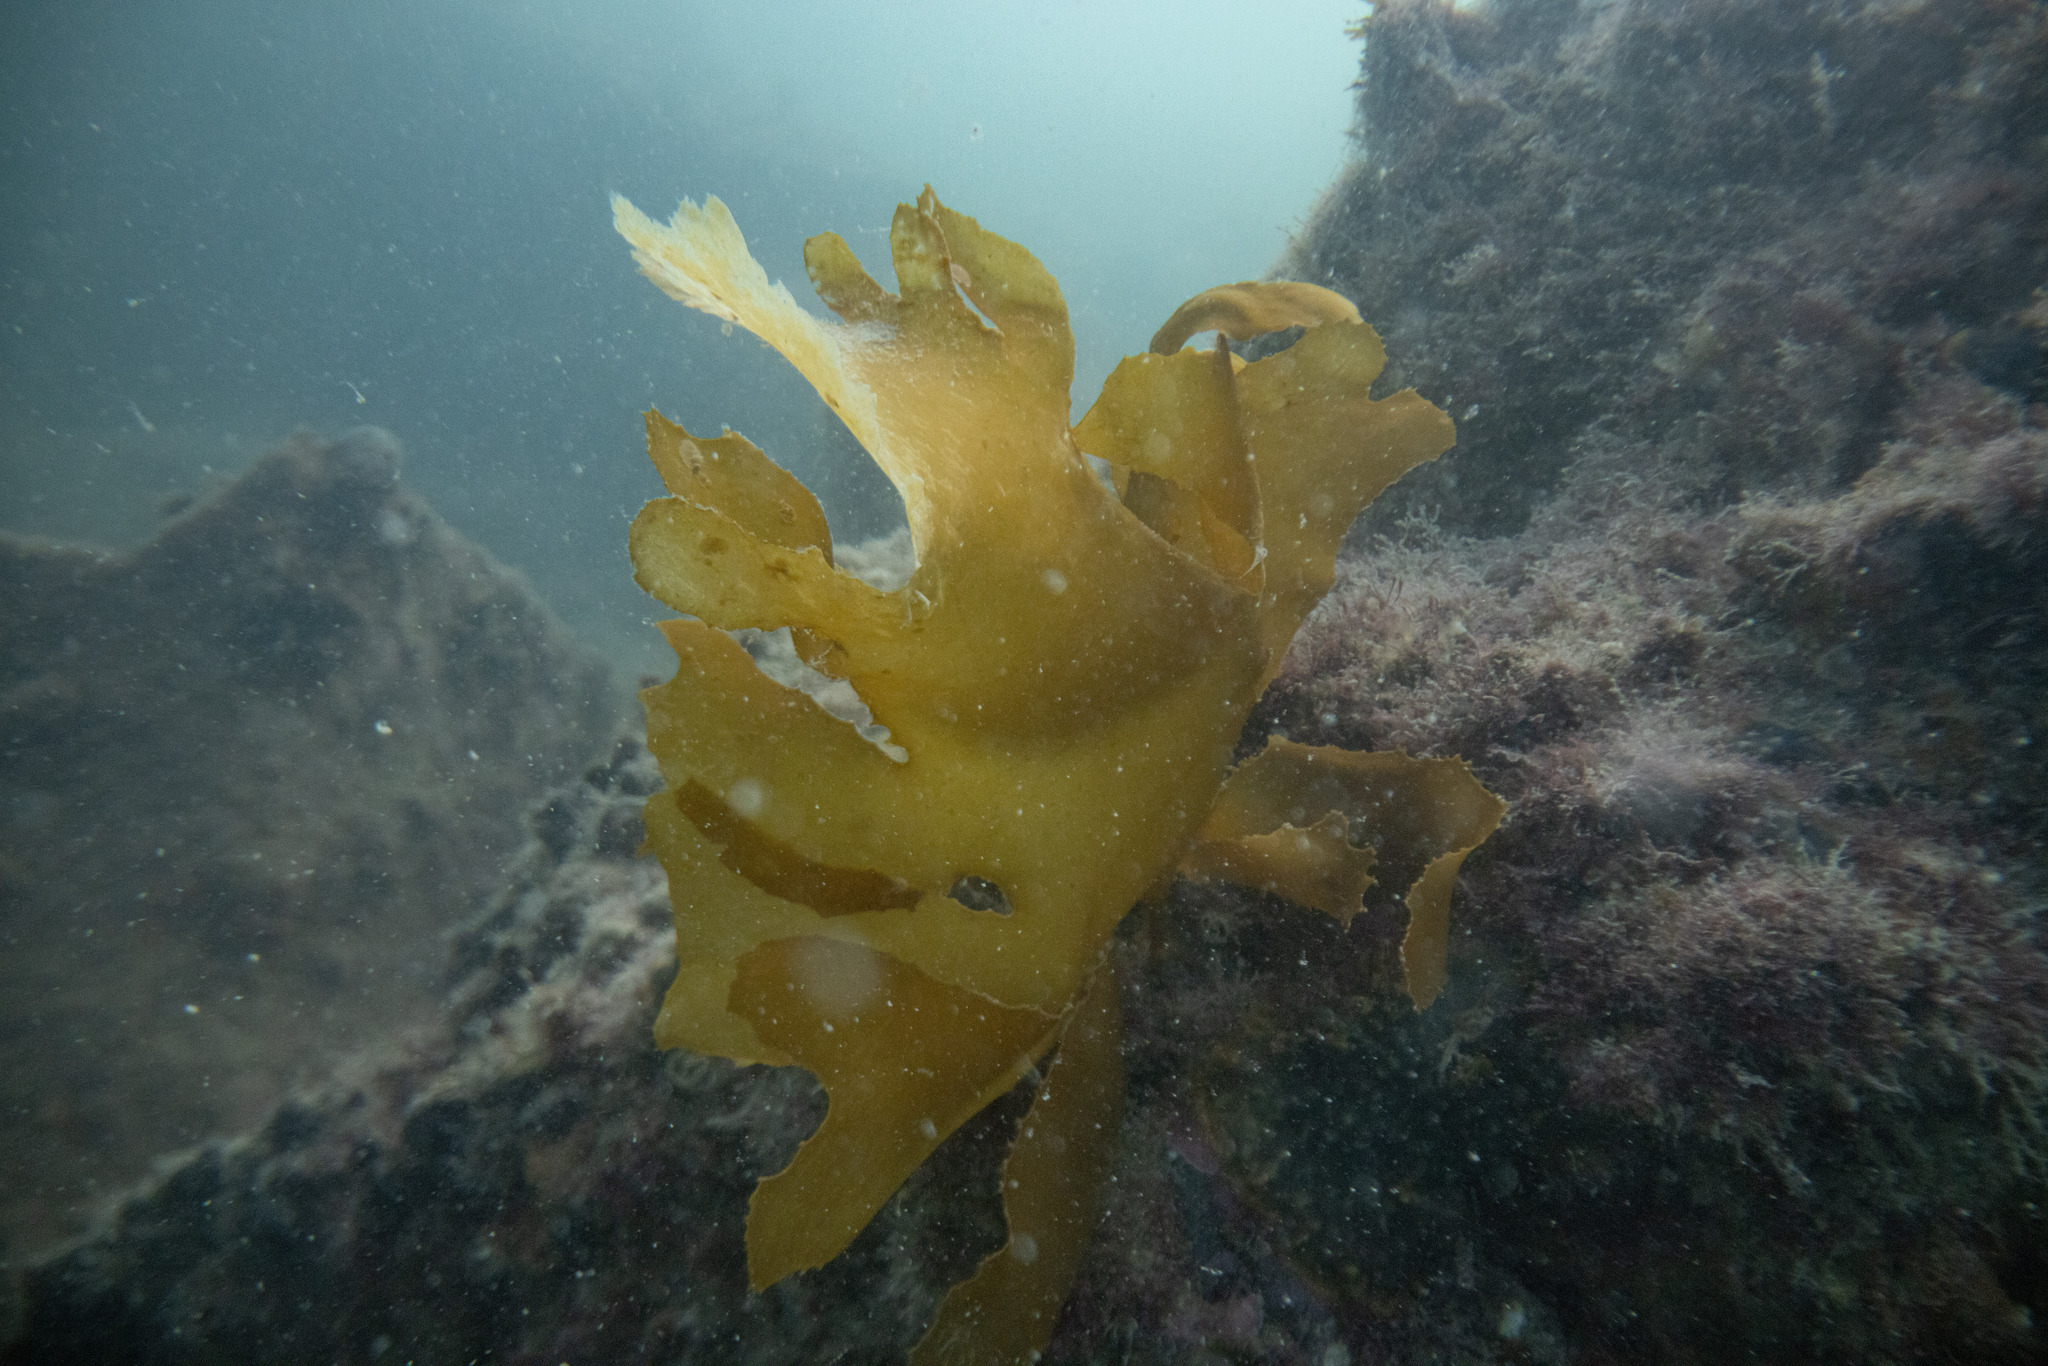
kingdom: Chromista
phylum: Ochrophyta
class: Phaeophyceae
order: Laminariales
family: Lessoniaceae
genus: Ecklonia
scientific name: Ecklonia radiata
